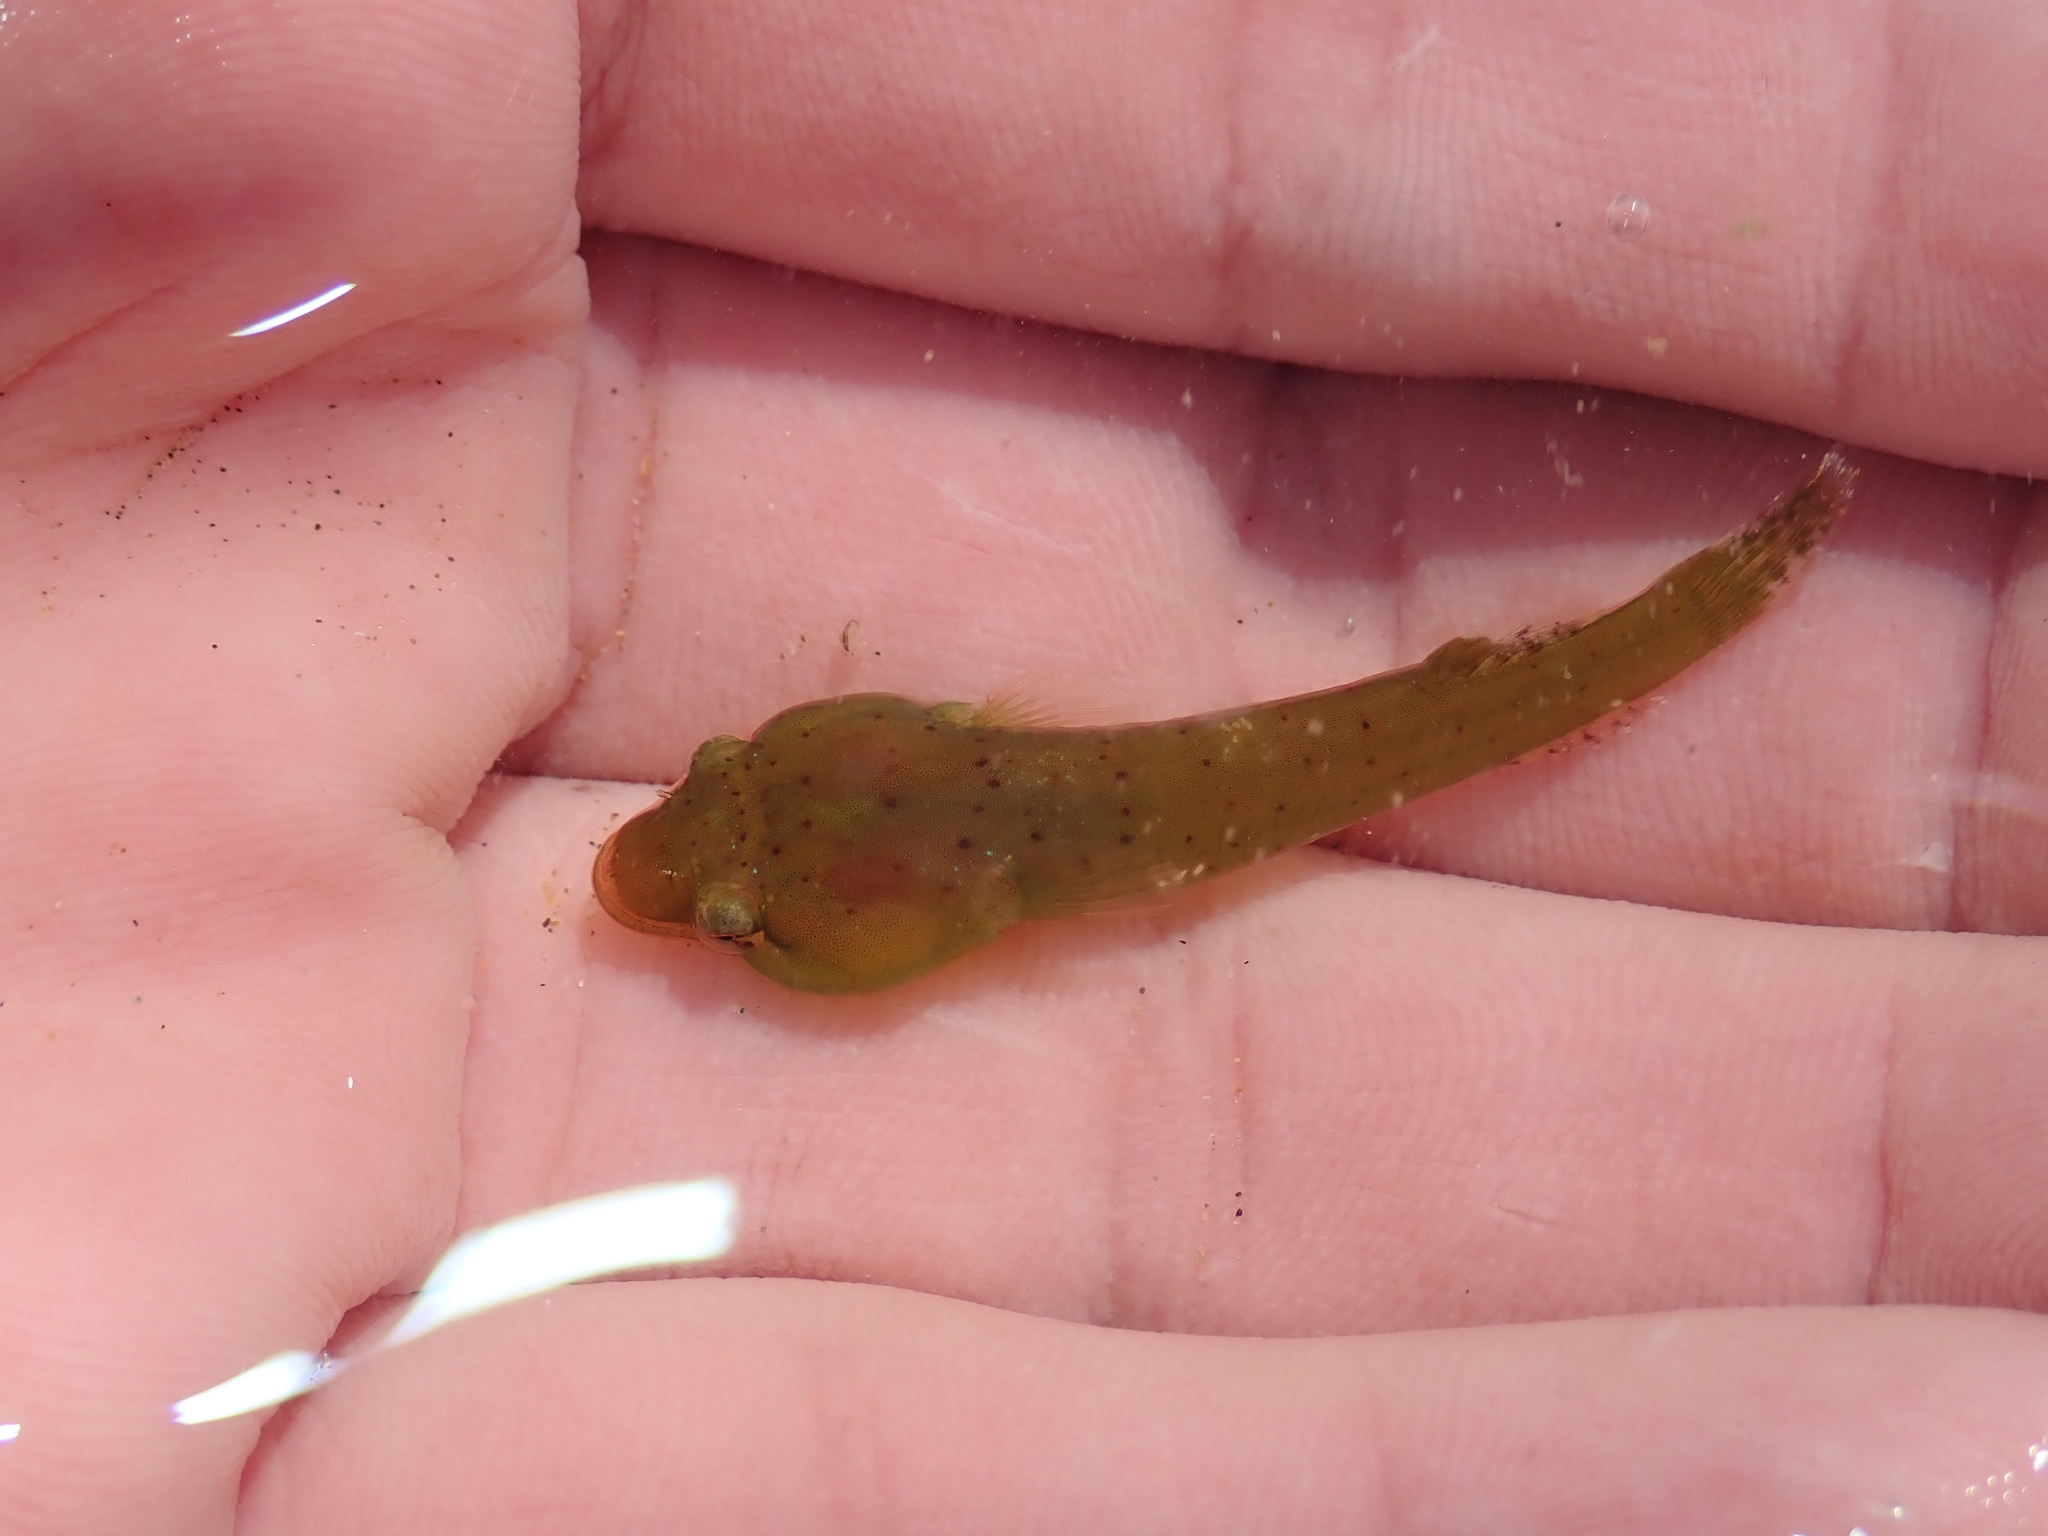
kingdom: Animalia
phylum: Chordata
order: Gobiesociformes
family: Gobiesocidae
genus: Apletodon
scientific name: Apletodon dentatus
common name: Small-headed clingfish
